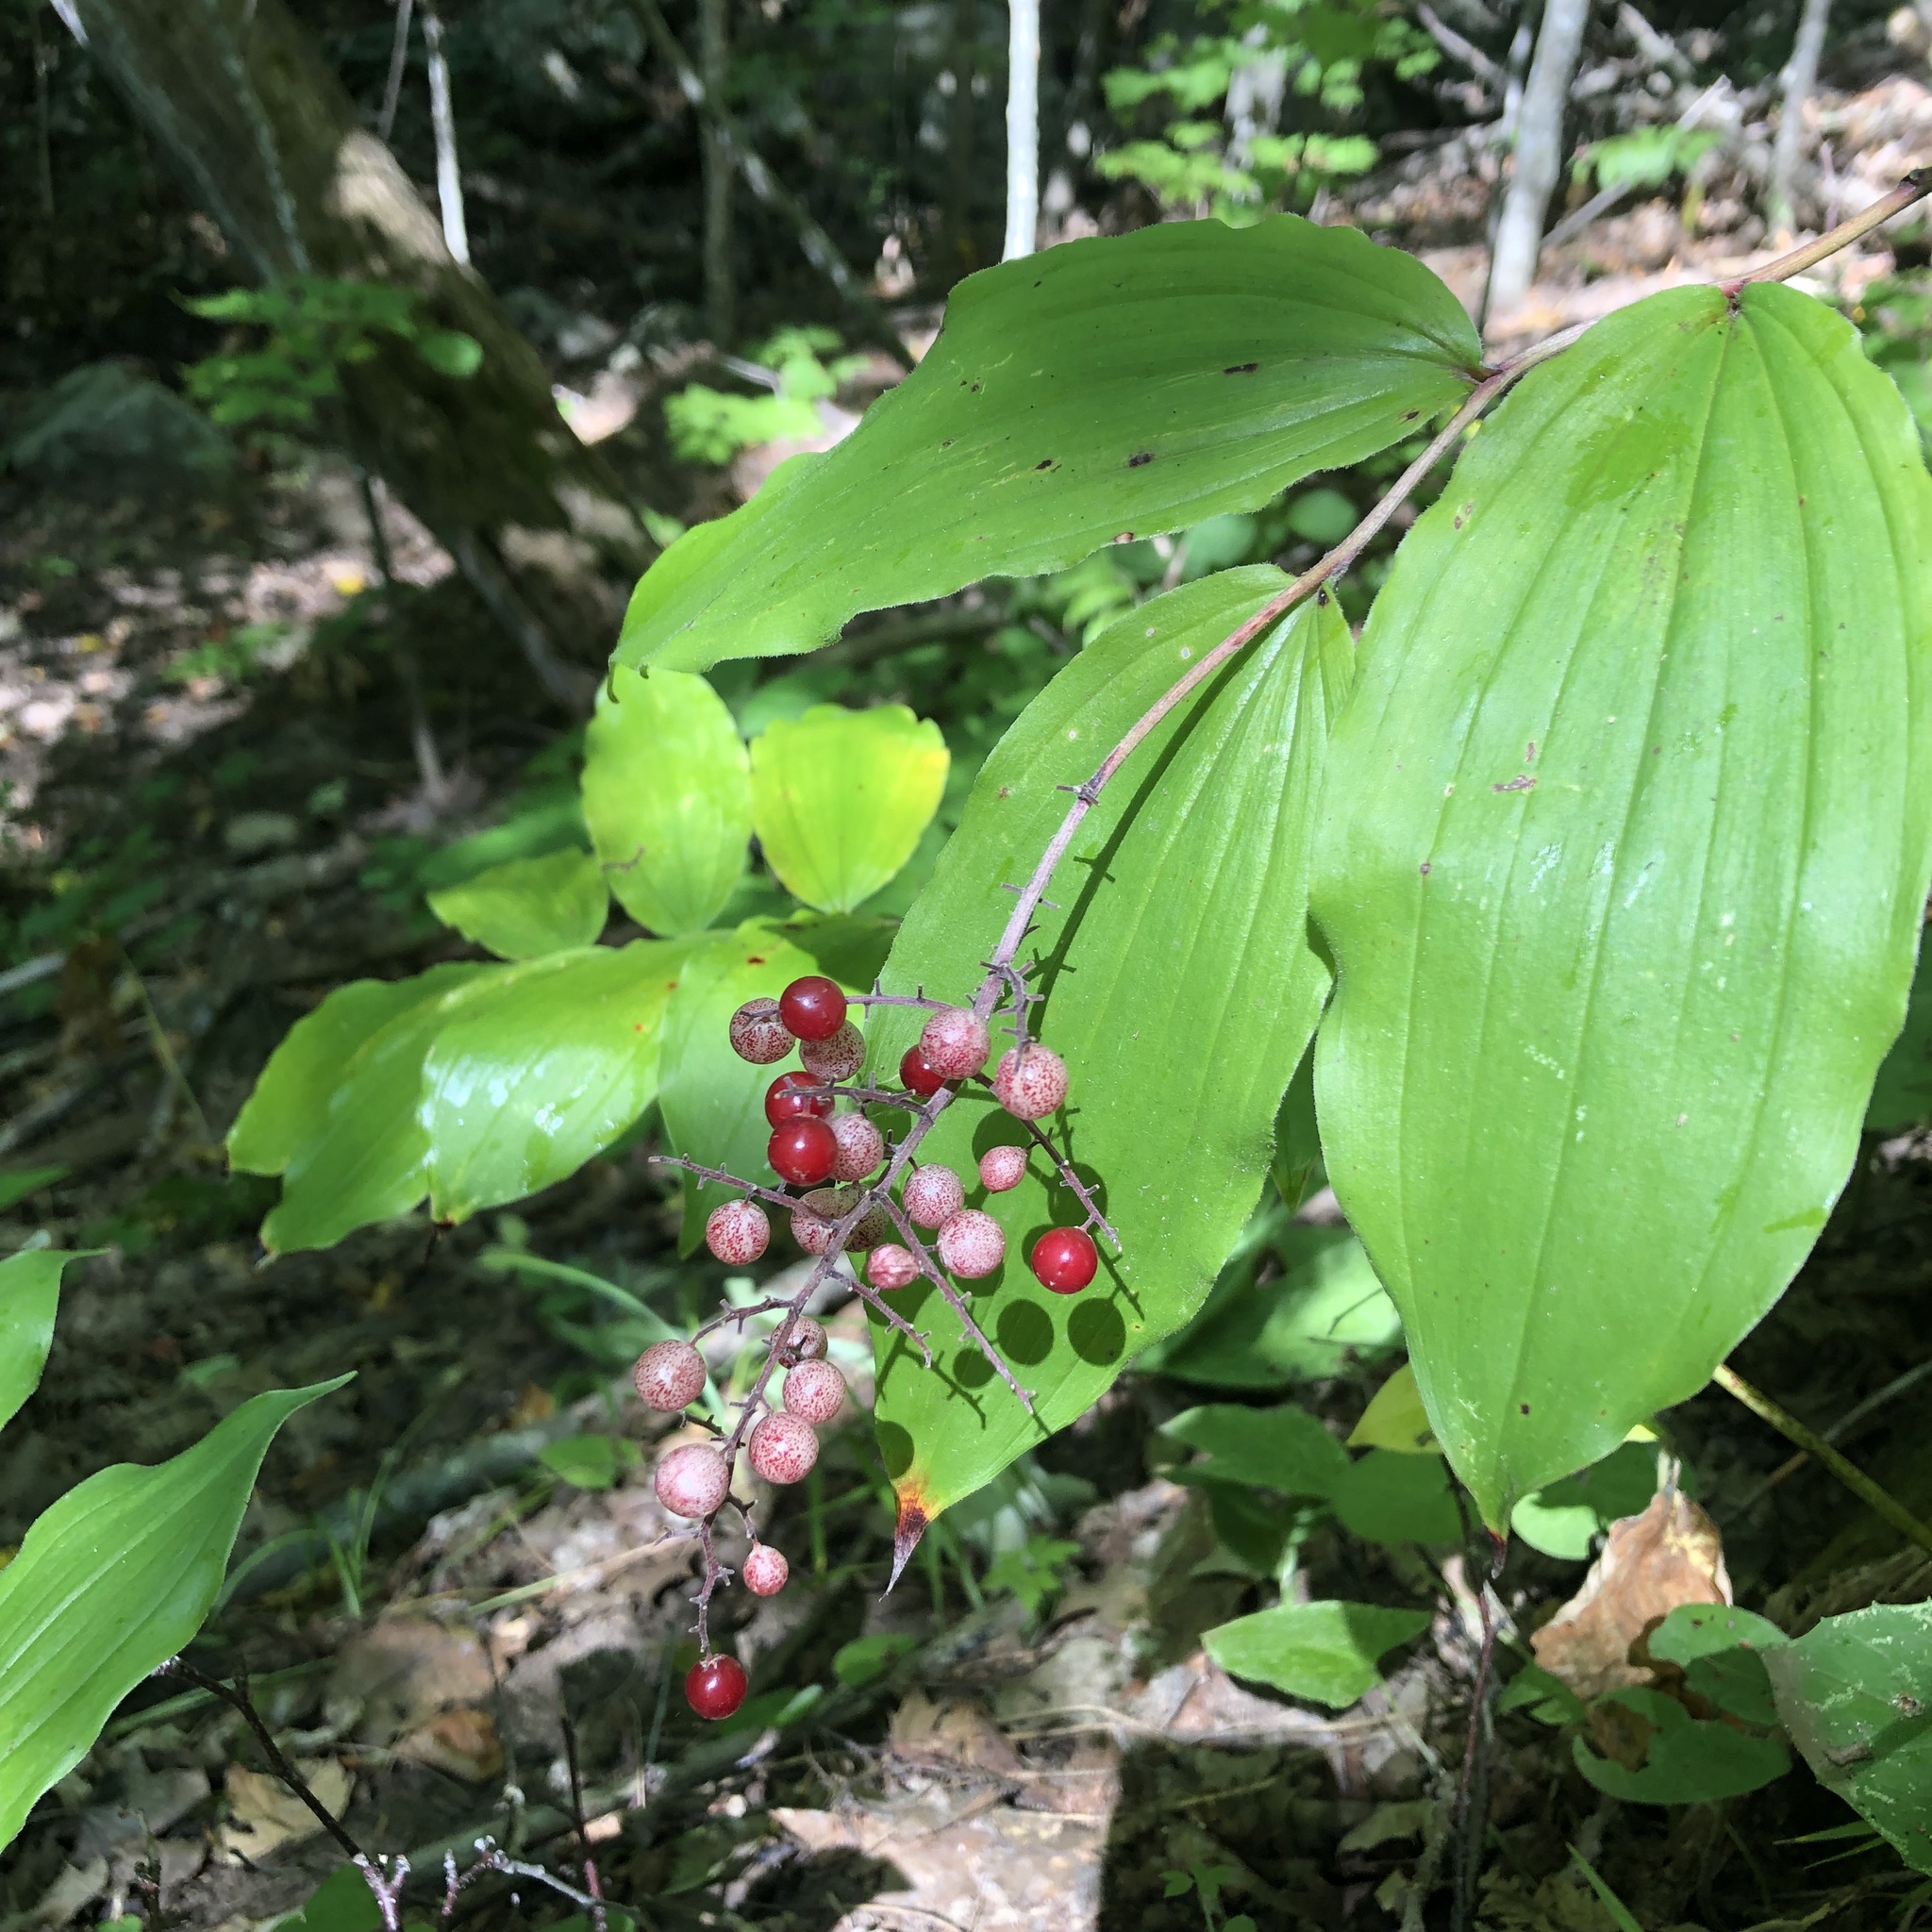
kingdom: Plantae
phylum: Tracheophyta
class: Liliopsida
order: Asparagales
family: Asparagaceae
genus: Maianthemum
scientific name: Maianthemum racemosum
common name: False spikenard
